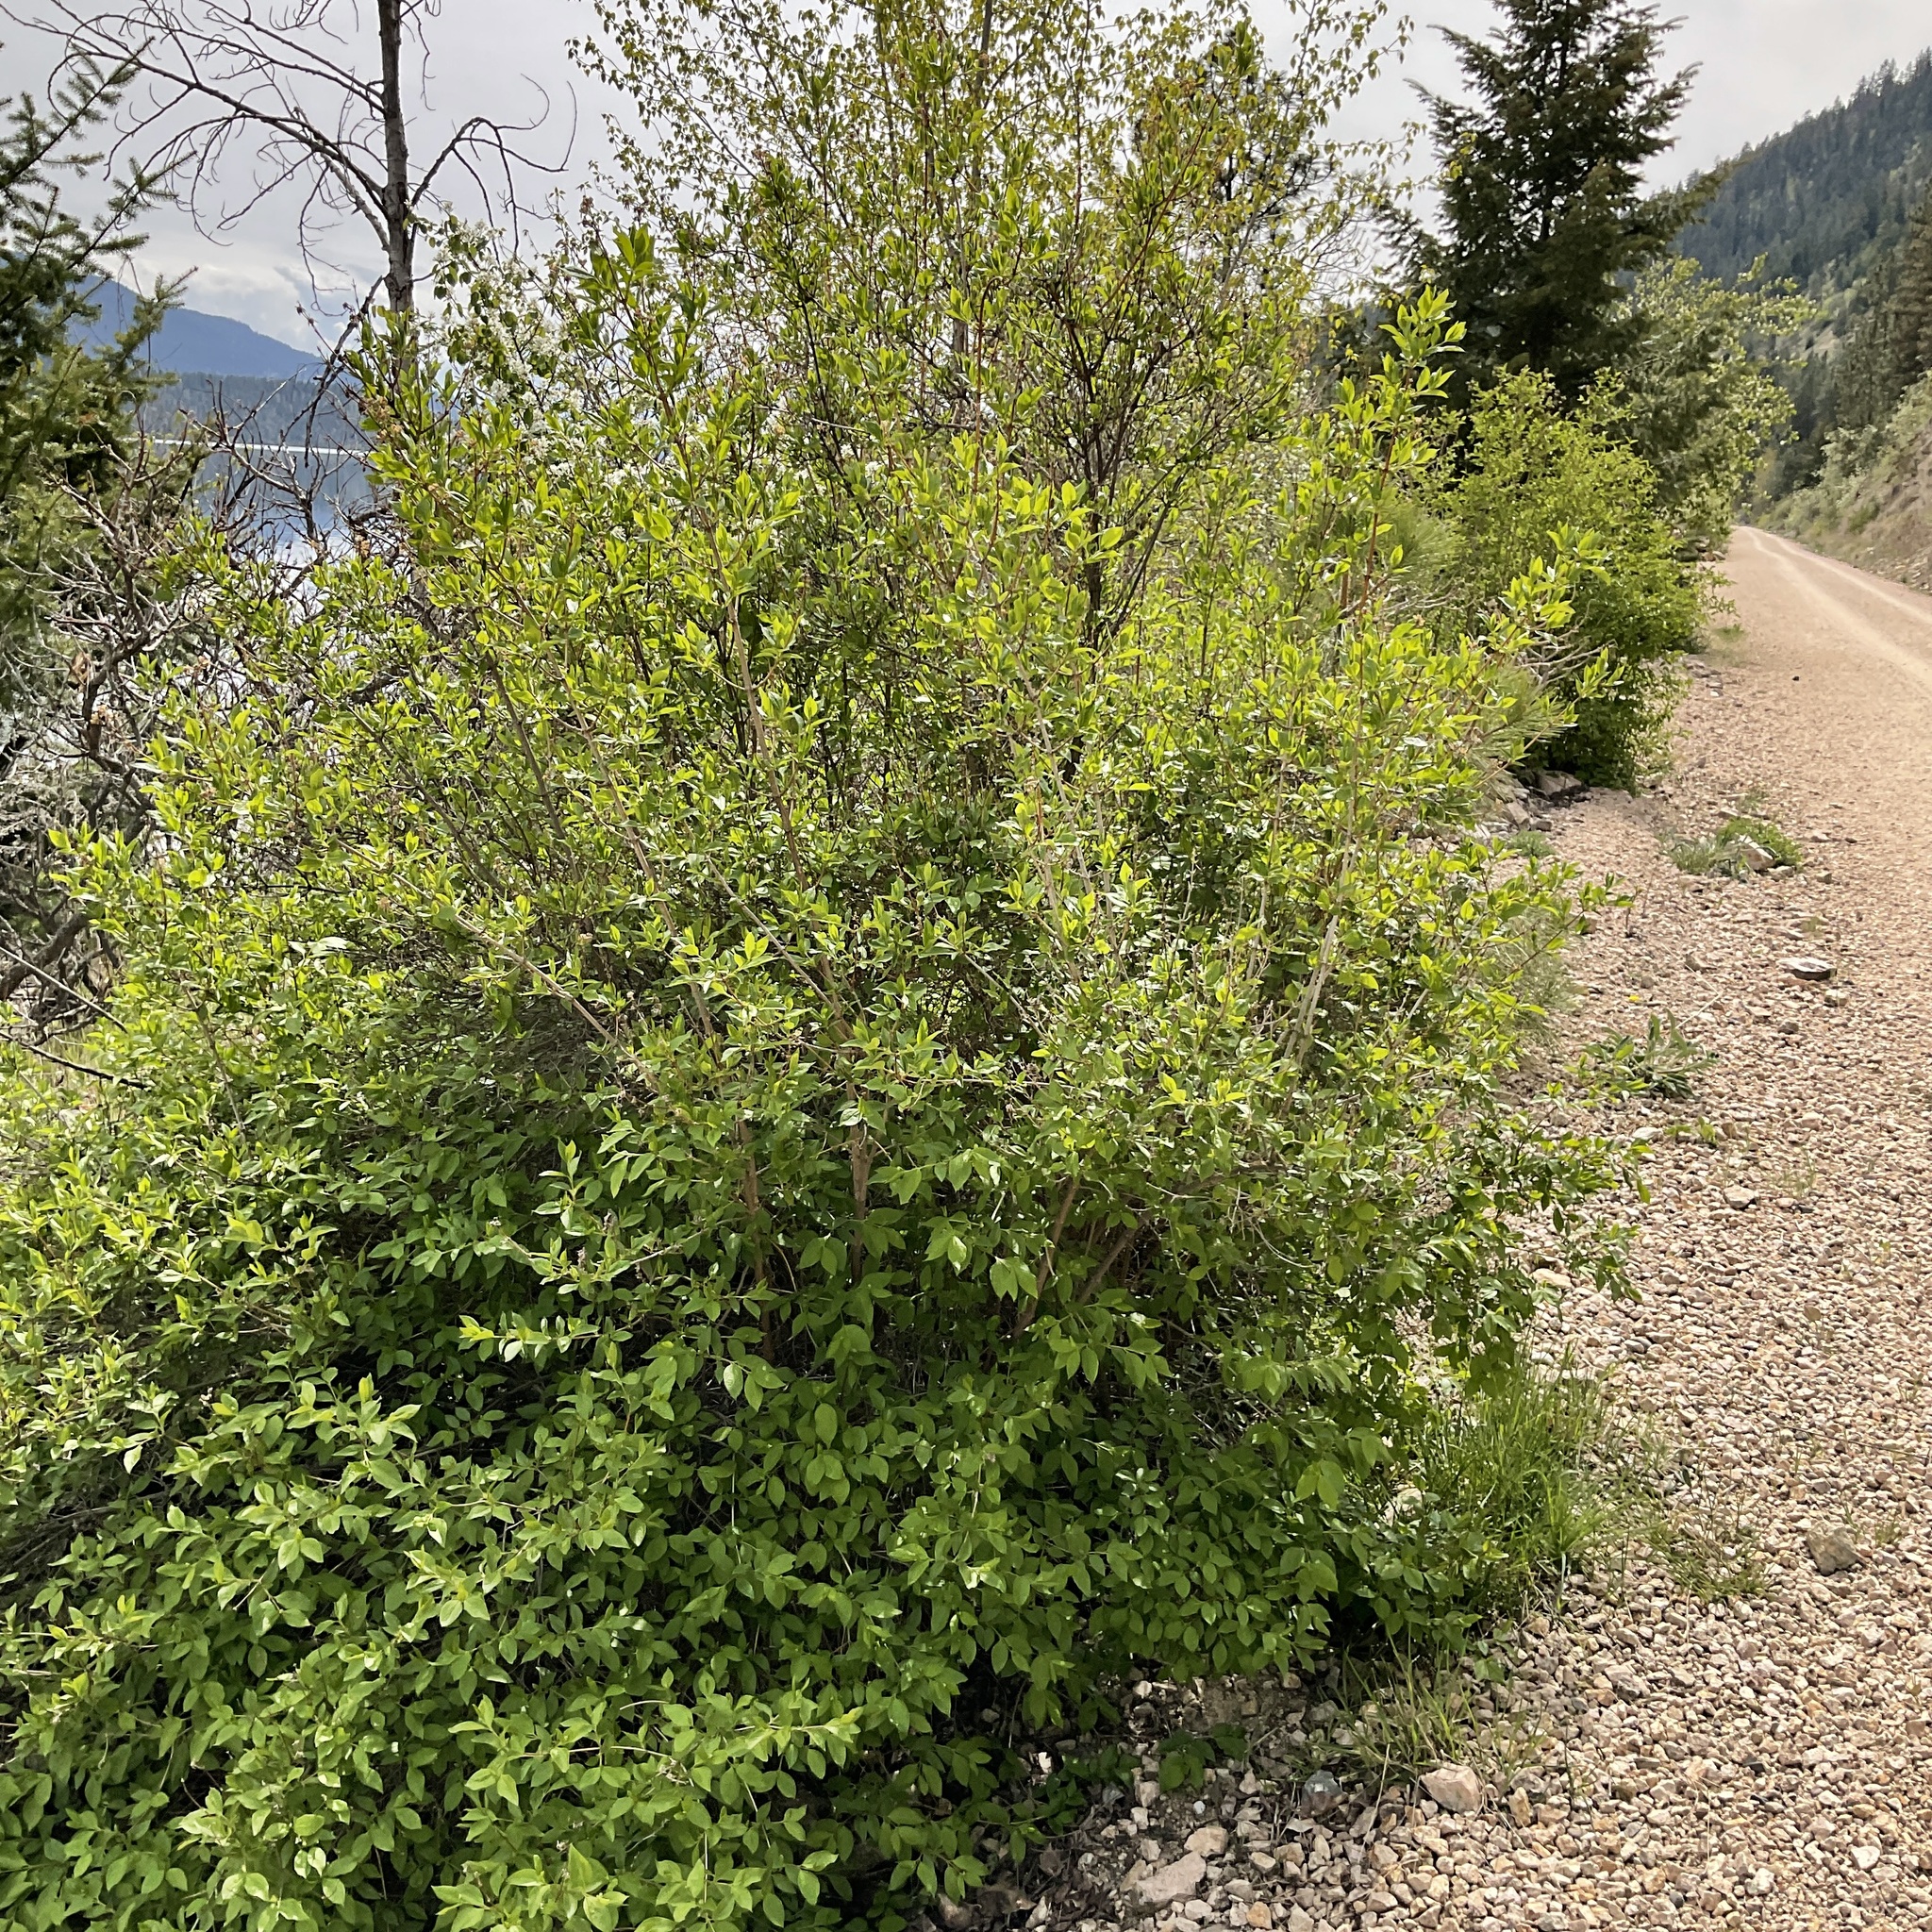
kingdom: Plantae
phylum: Tracheophyta
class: Magnoliopsida
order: Cornales
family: Hydrangeaceae
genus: Philadelphus
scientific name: Philadelphus lewisii
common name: Lewis's mock orange
